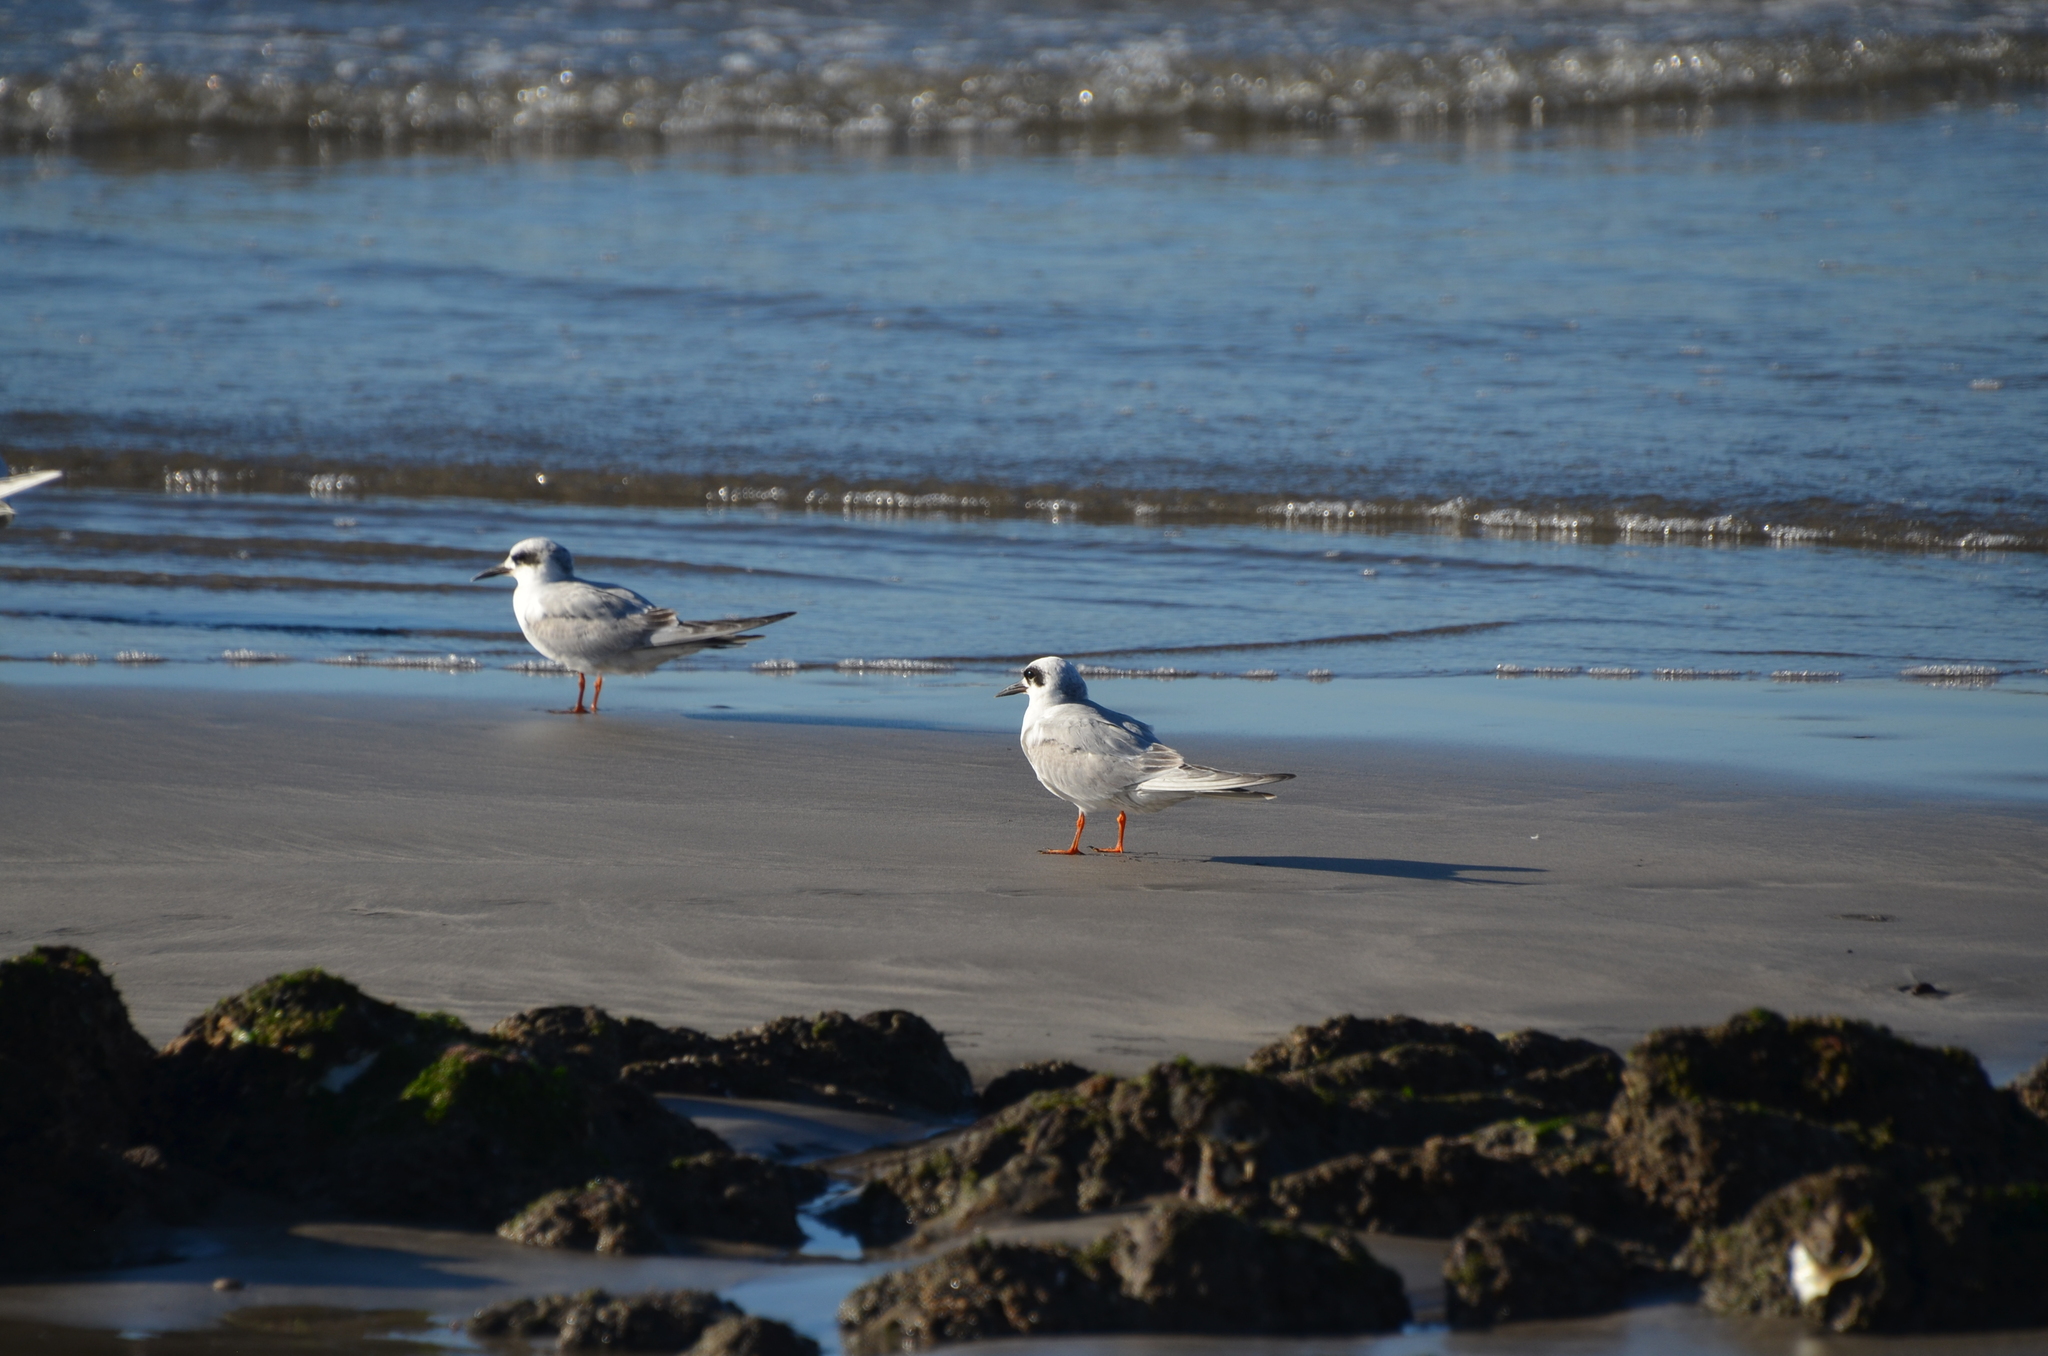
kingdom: Animalia
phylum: Chordata
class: Aves
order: Charadriiformes
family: Laridae
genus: Sterna
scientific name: Sterna forsteri
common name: Forster's tern
